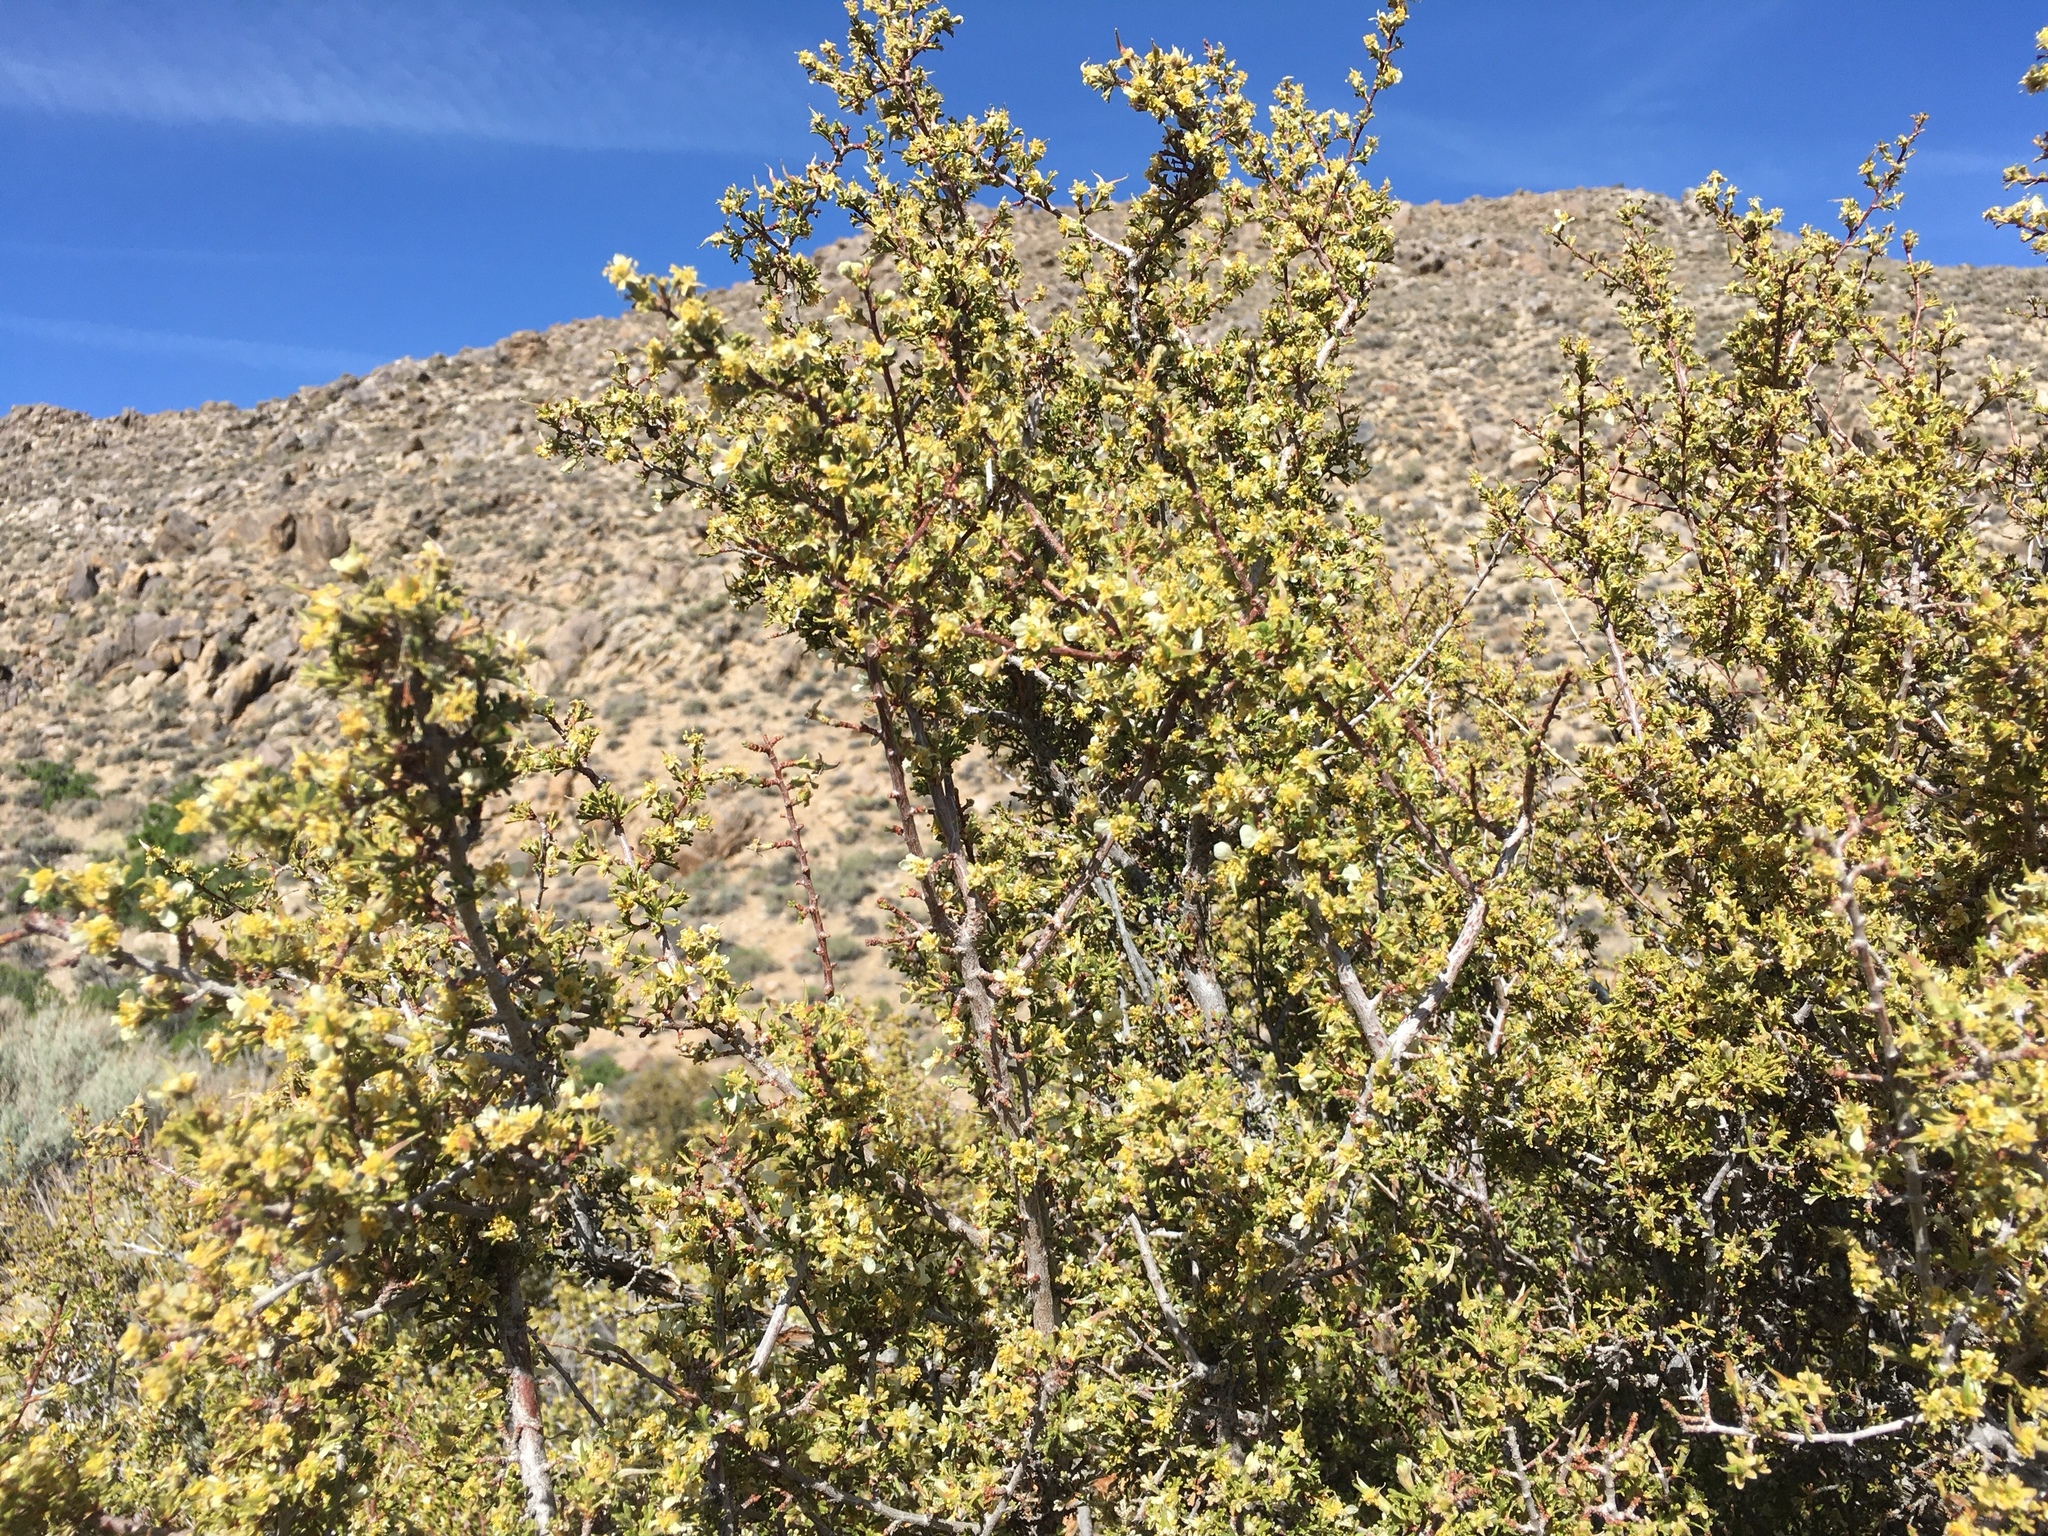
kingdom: Plantae
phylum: Tracheophyta
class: Magnoliopsida
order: Rosales
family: Rosaceae
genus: Purshia
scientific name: Purshia glandulosa
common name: Desert bitterbrush
